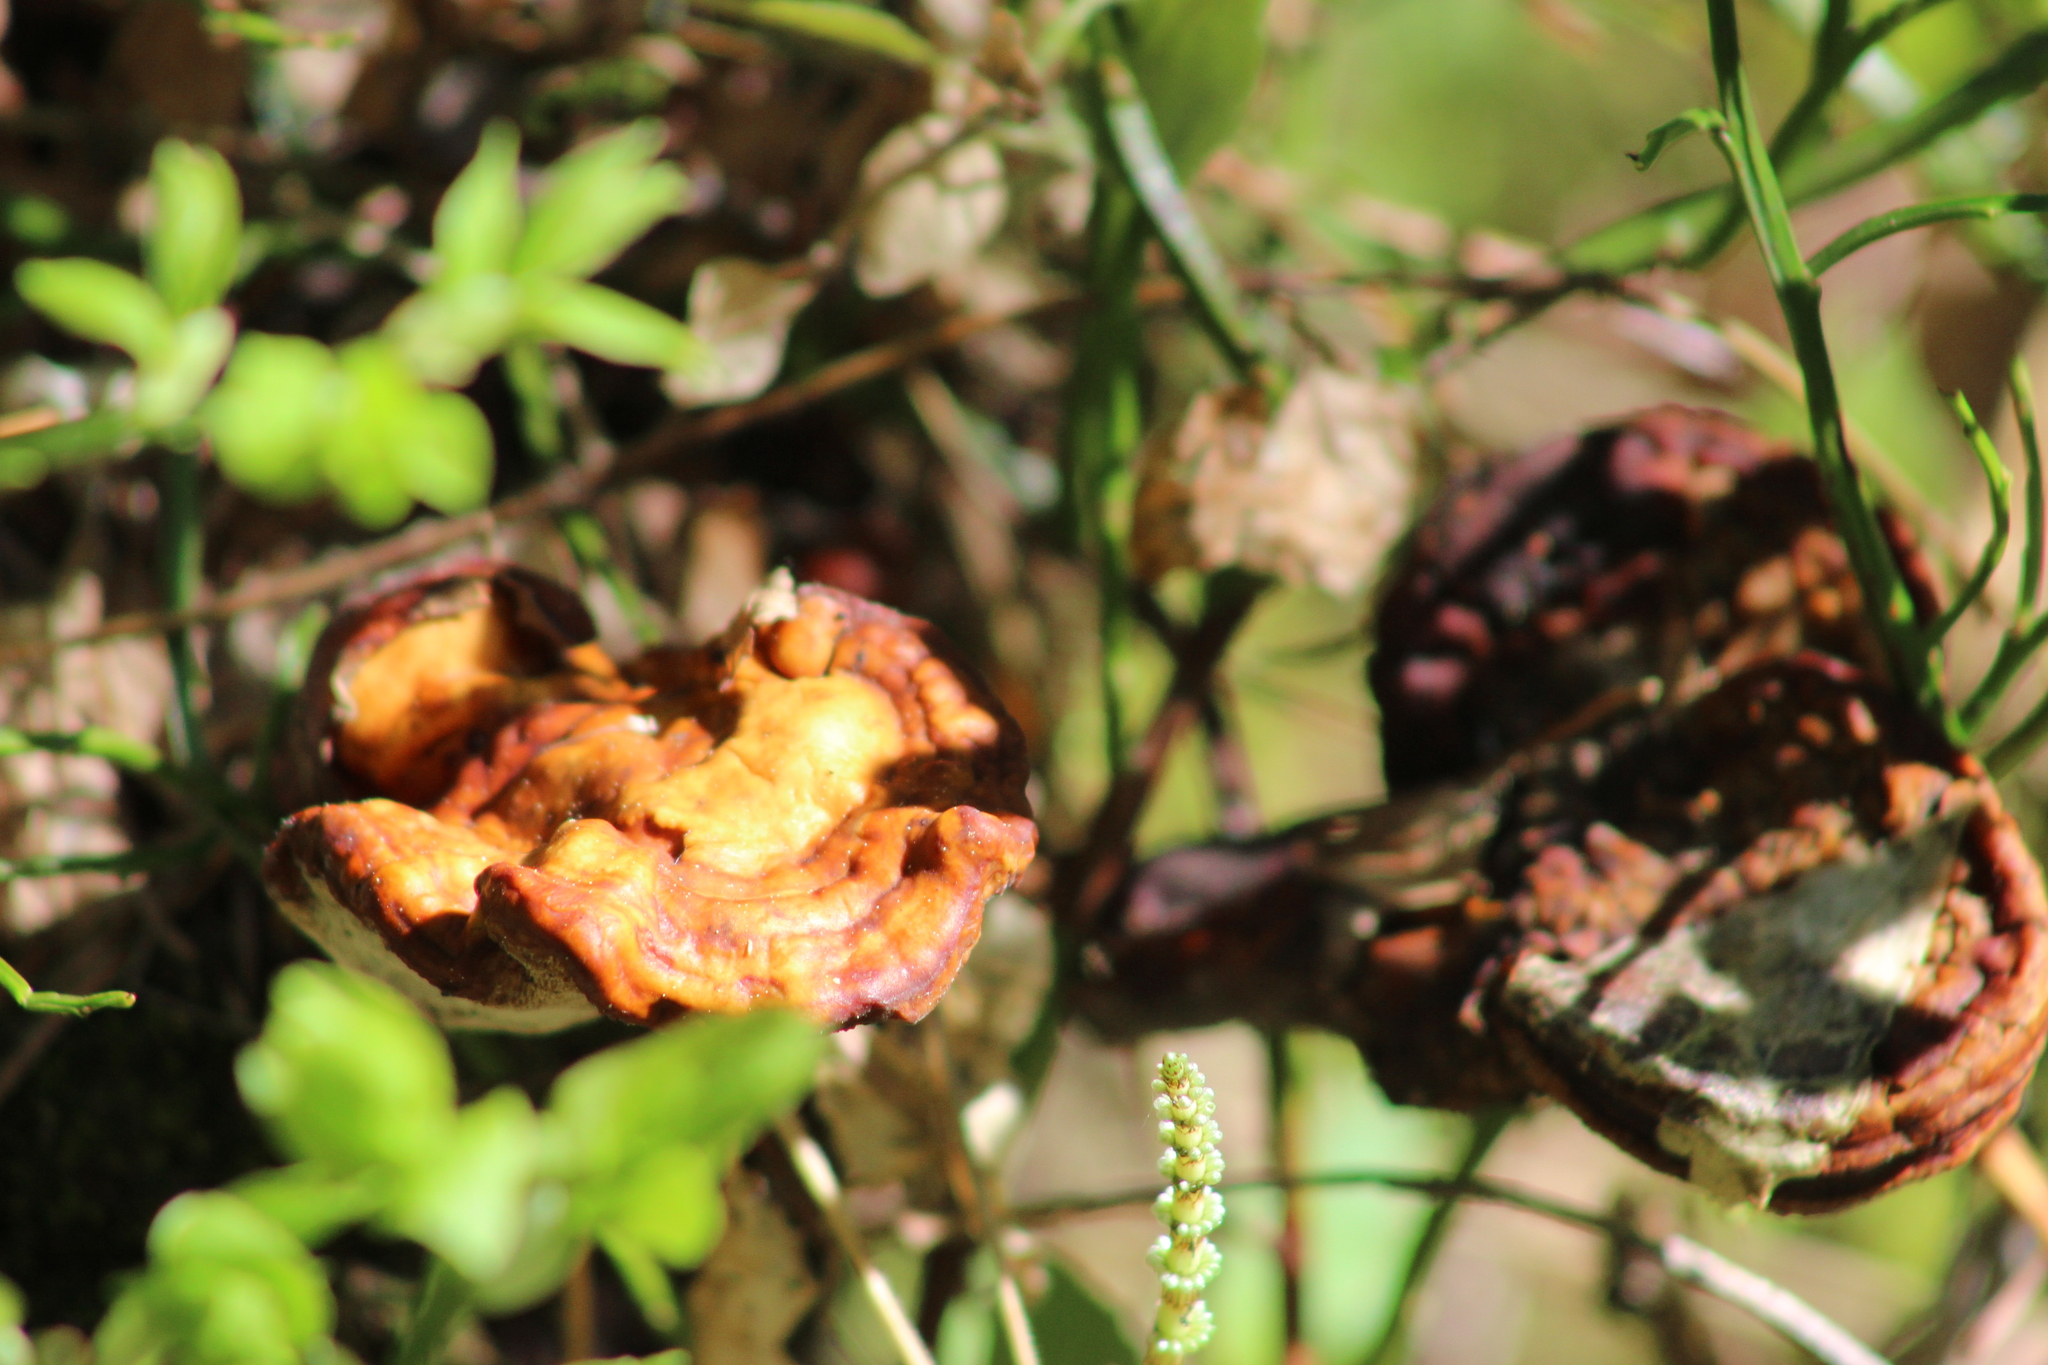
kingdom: Fungi
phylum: Basidiomycota
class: Agaricomycetes
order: Polyporales
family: Polyporaceae
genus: Ganoderma
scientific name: Ganoderma lucidum
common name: Lacquered bracket
